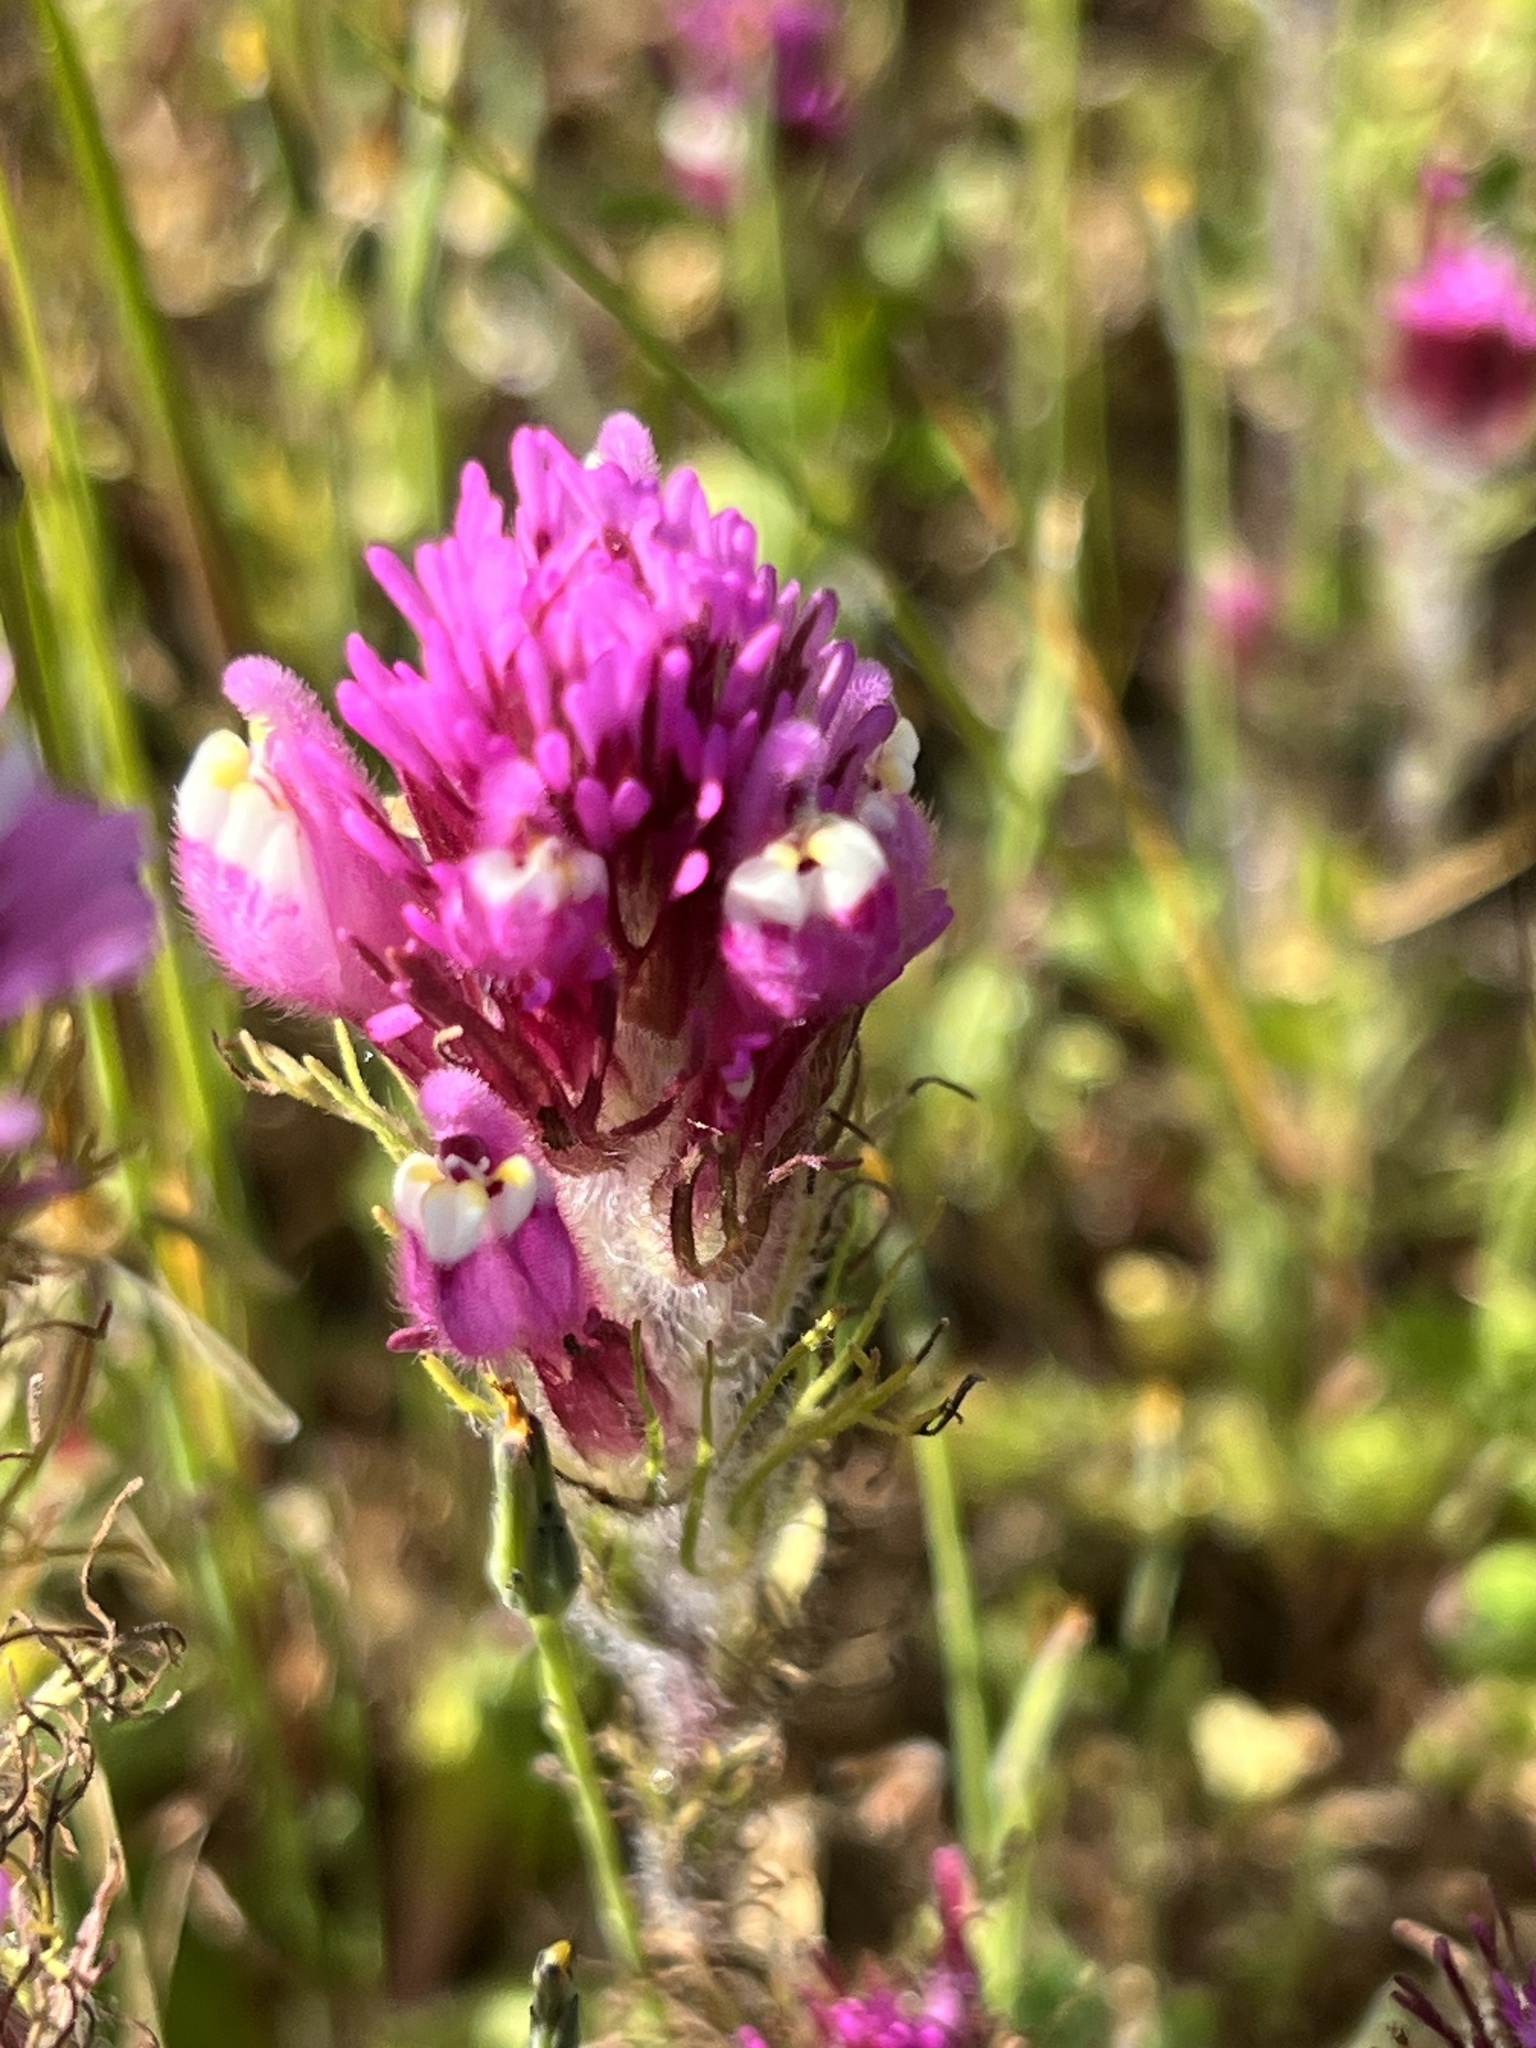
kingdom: Plantae
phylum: Tracheophyta
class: Magnoliopsida
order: Lamiales
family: Orobanchaceae
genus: Castilleja
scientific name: Castilleja exserta
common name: Purple owl-clover
